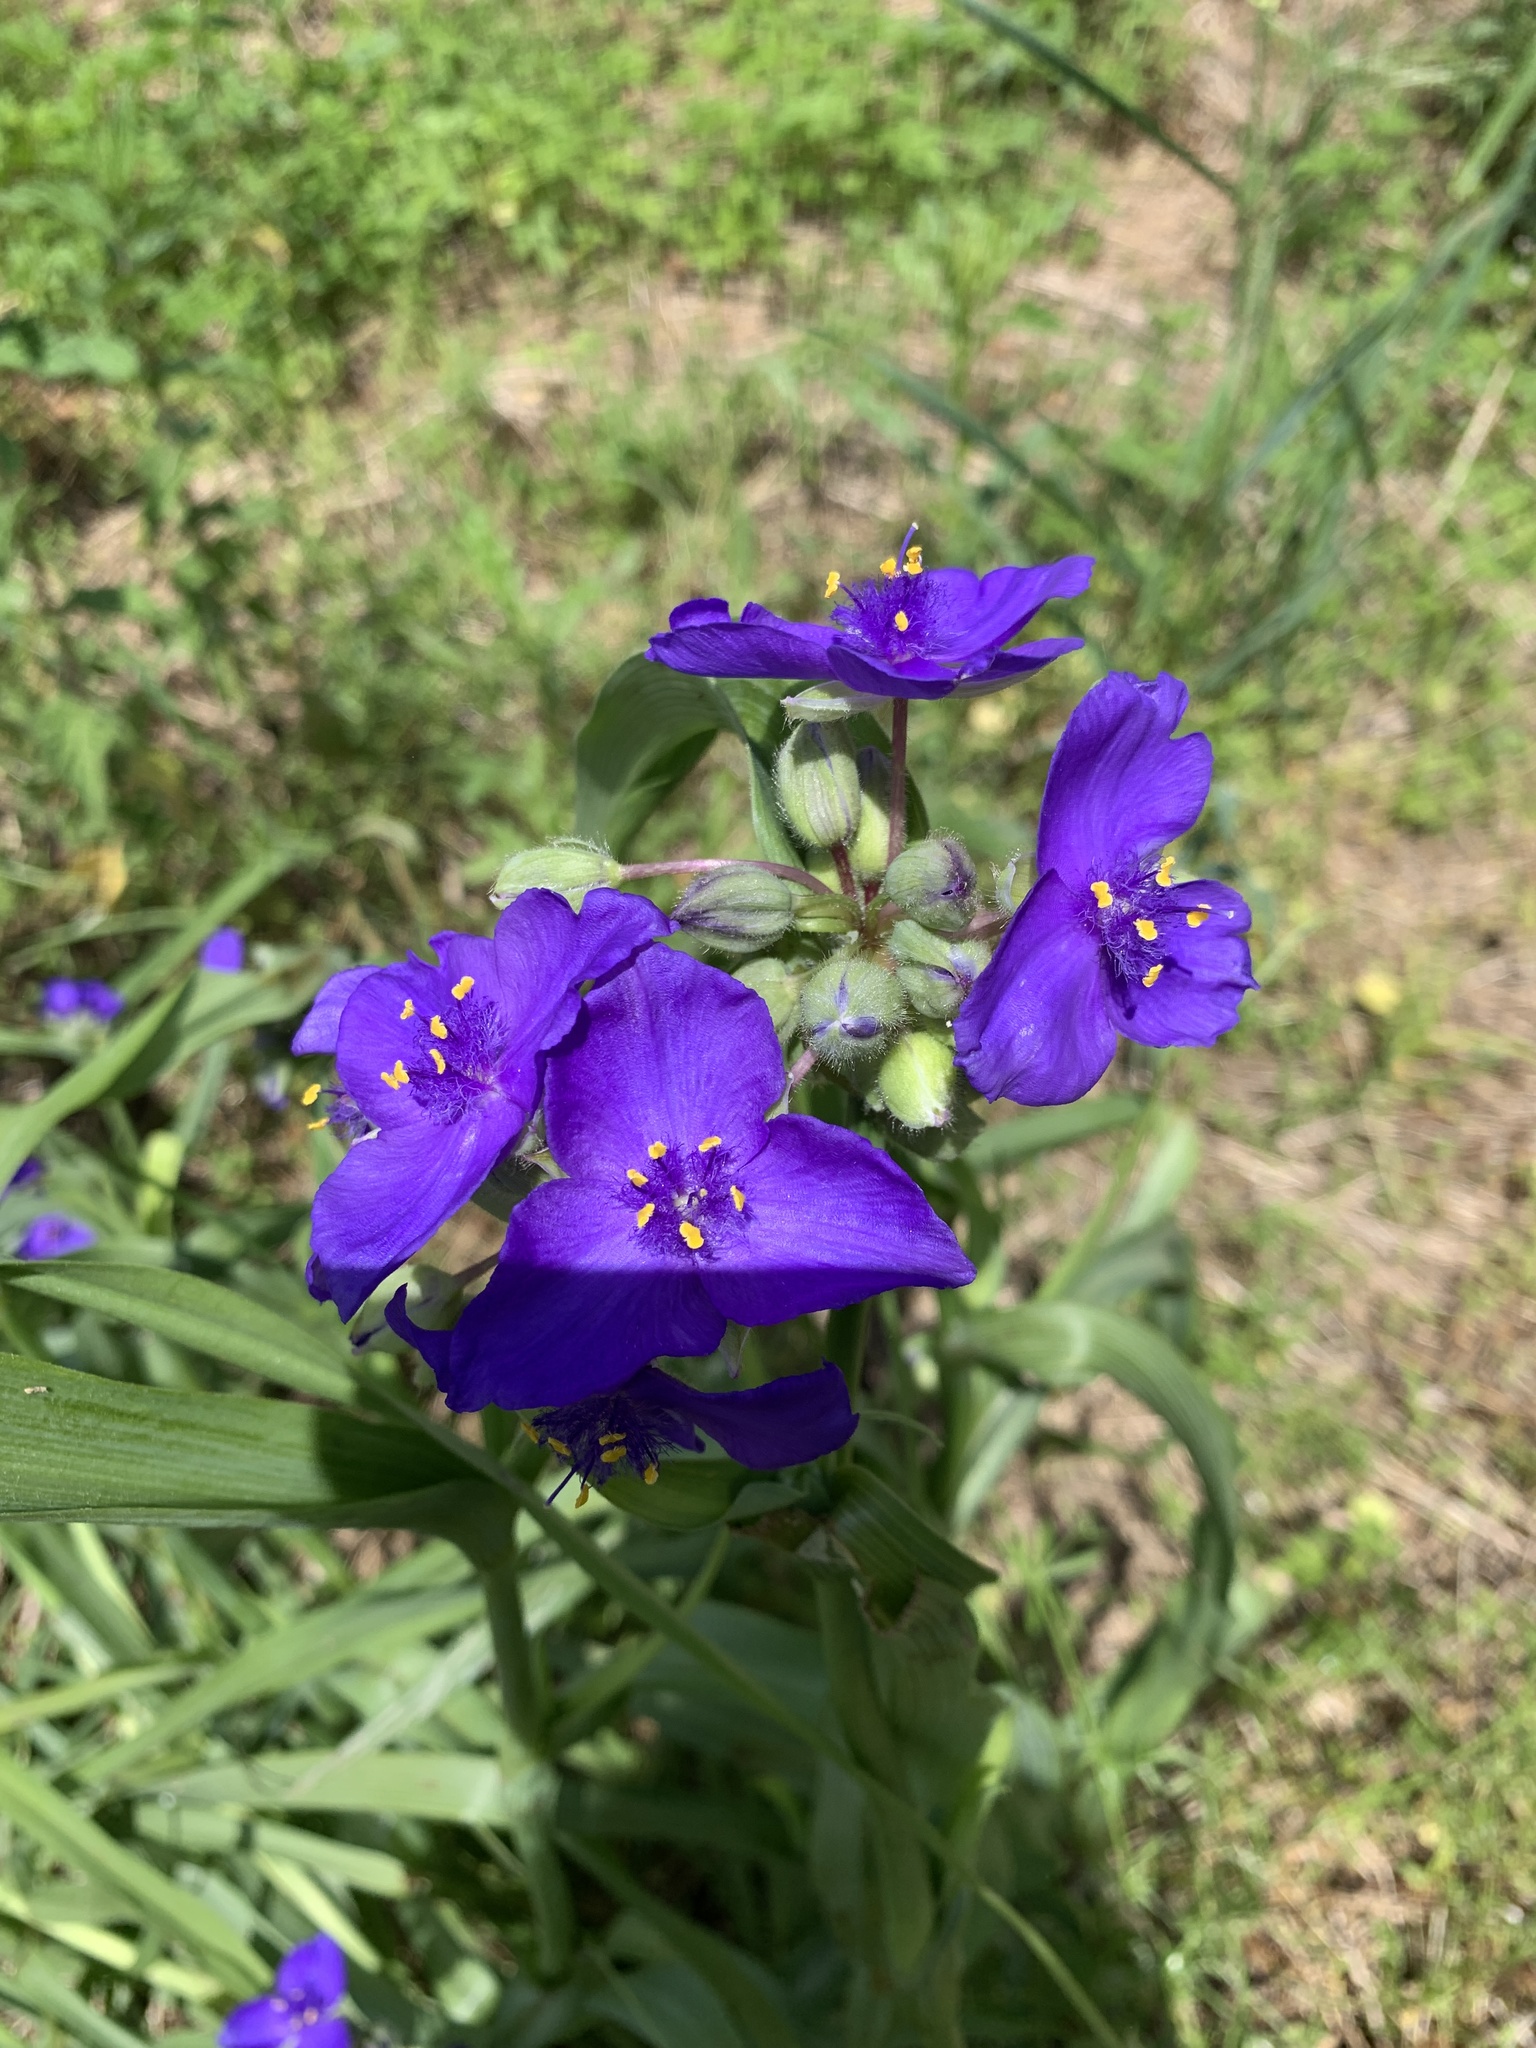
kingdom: Plantae
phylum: Tracheophyta
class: Liliopsida
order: Commelinales
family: Commelinaceae
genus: Tradescantia
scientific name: Tradescantia virginiana
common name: Spiderwort
